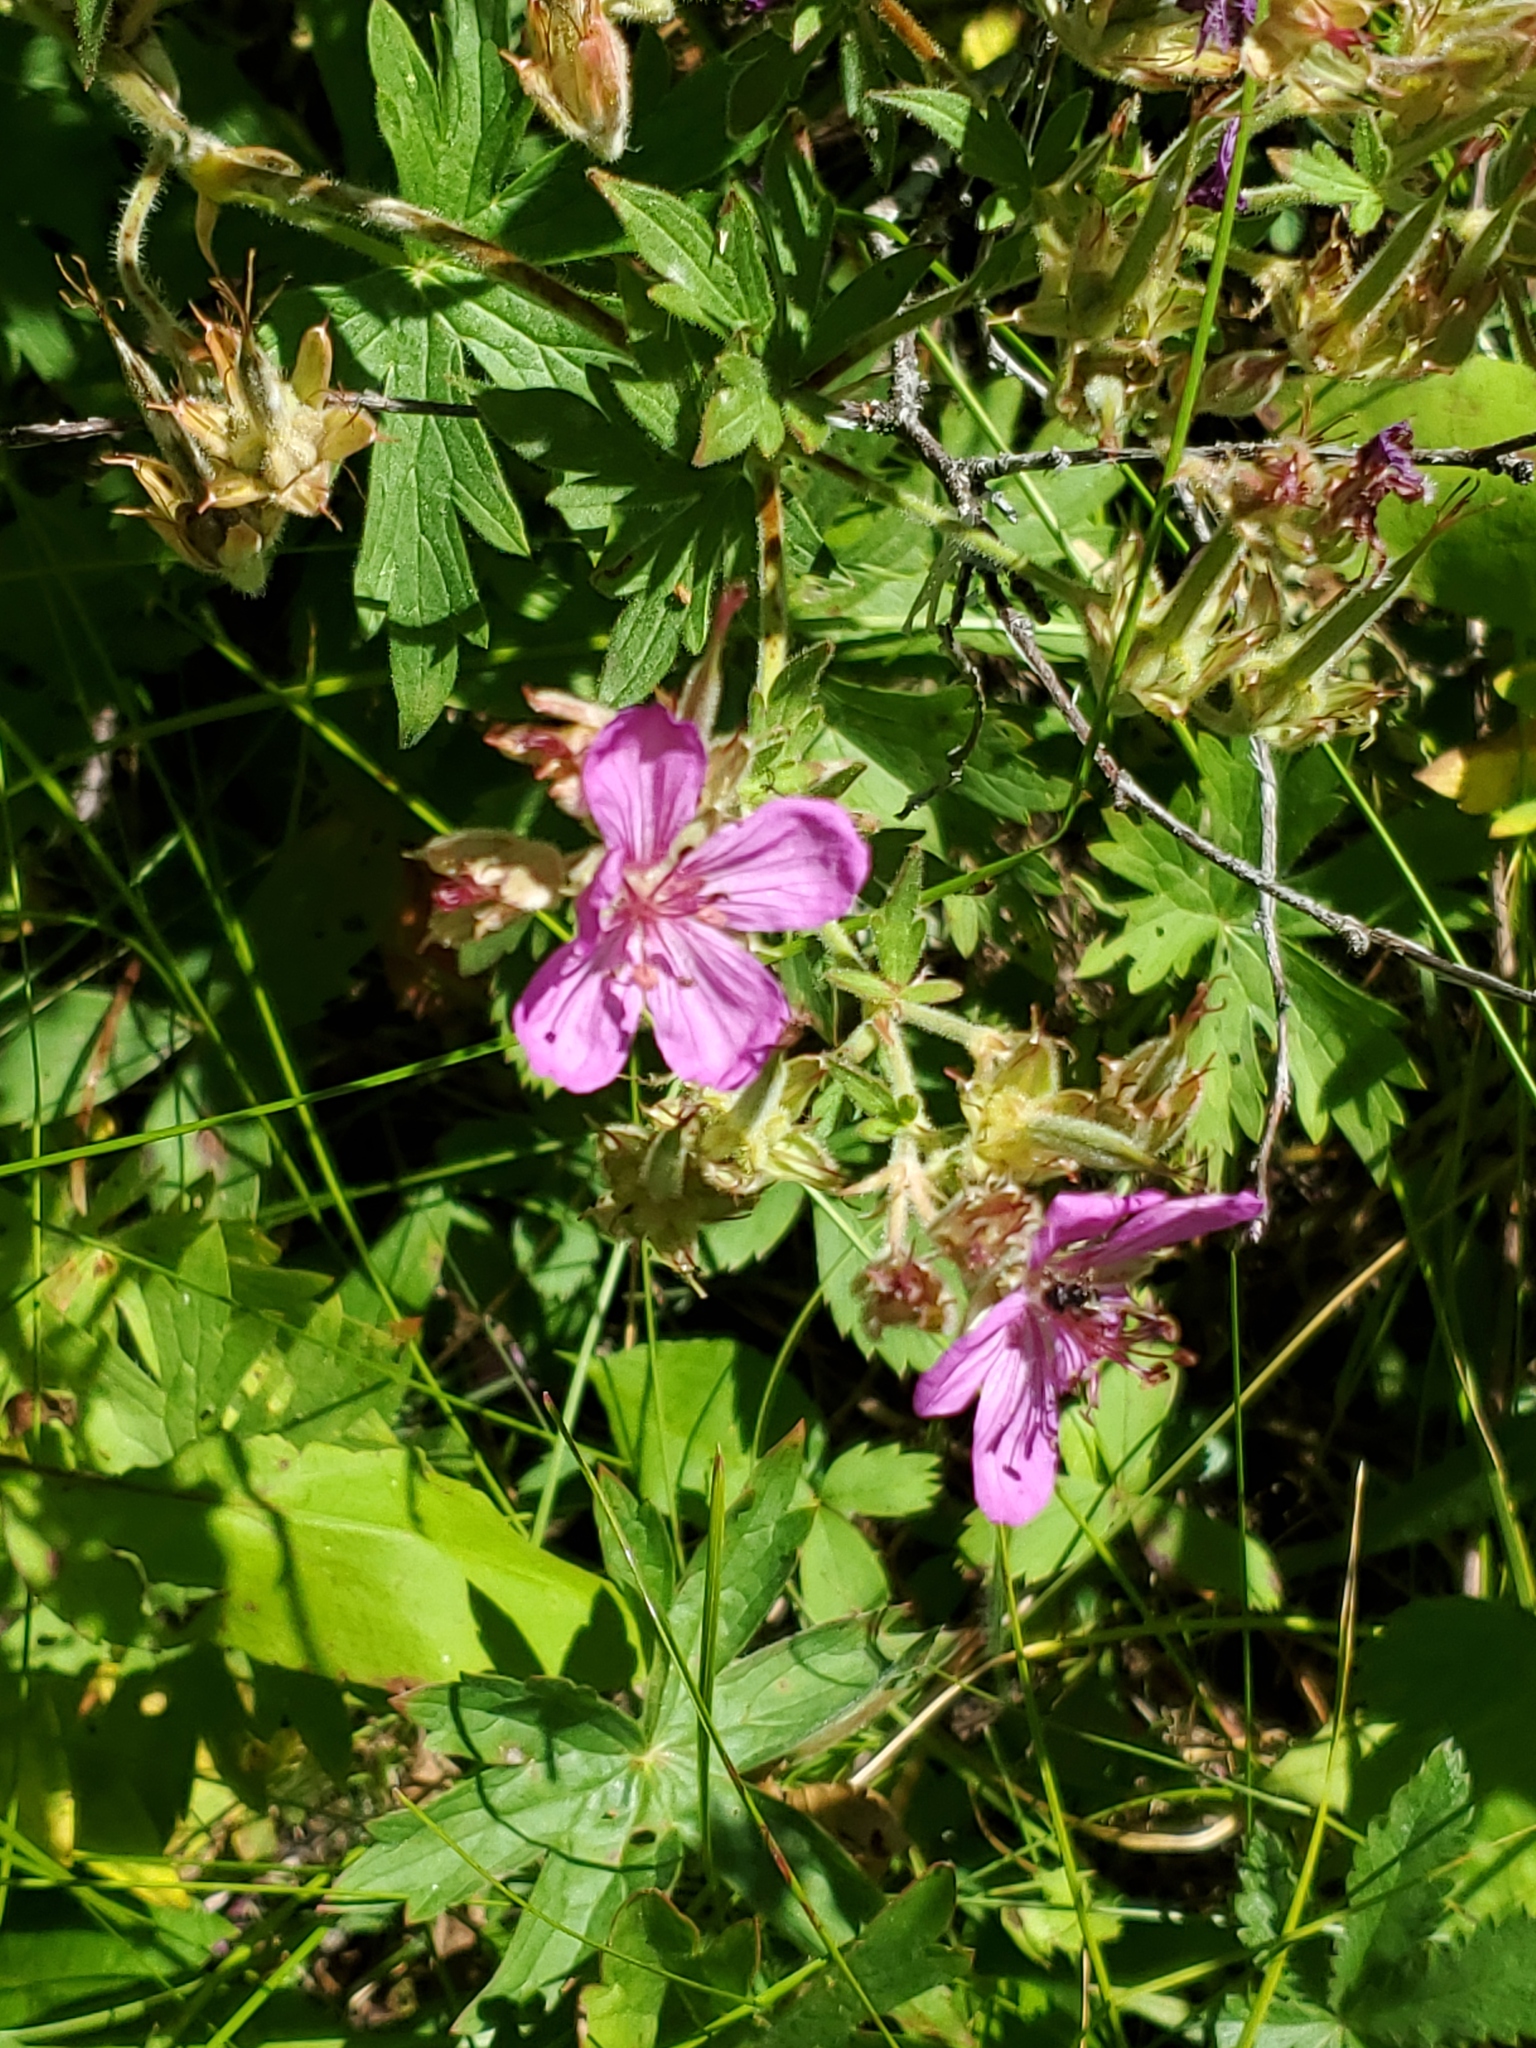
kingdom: Plantae
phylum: Tracheophyta
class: Magnoliopsida
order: Geraniales
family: Geraniaceae
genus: Geranium
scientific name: Geranium viscosissimum
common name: Purple geranium
